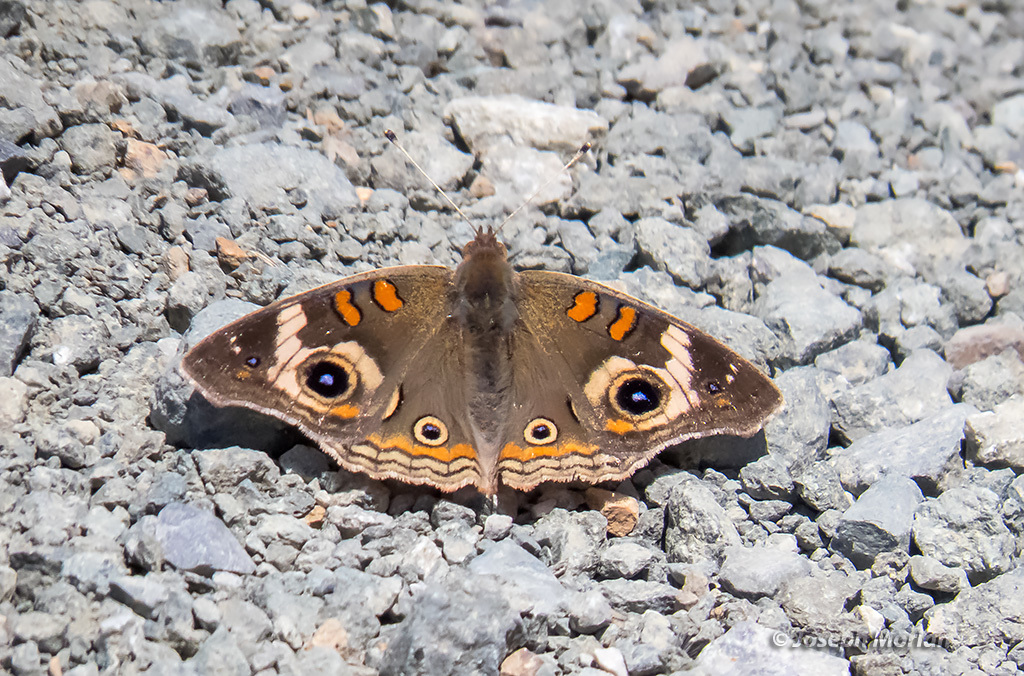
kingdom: Animalia
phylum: Arthropoda
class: Insecta
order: Lepidoptera
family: Nymphalidae
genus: Junonia
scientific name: Junonia grisea
